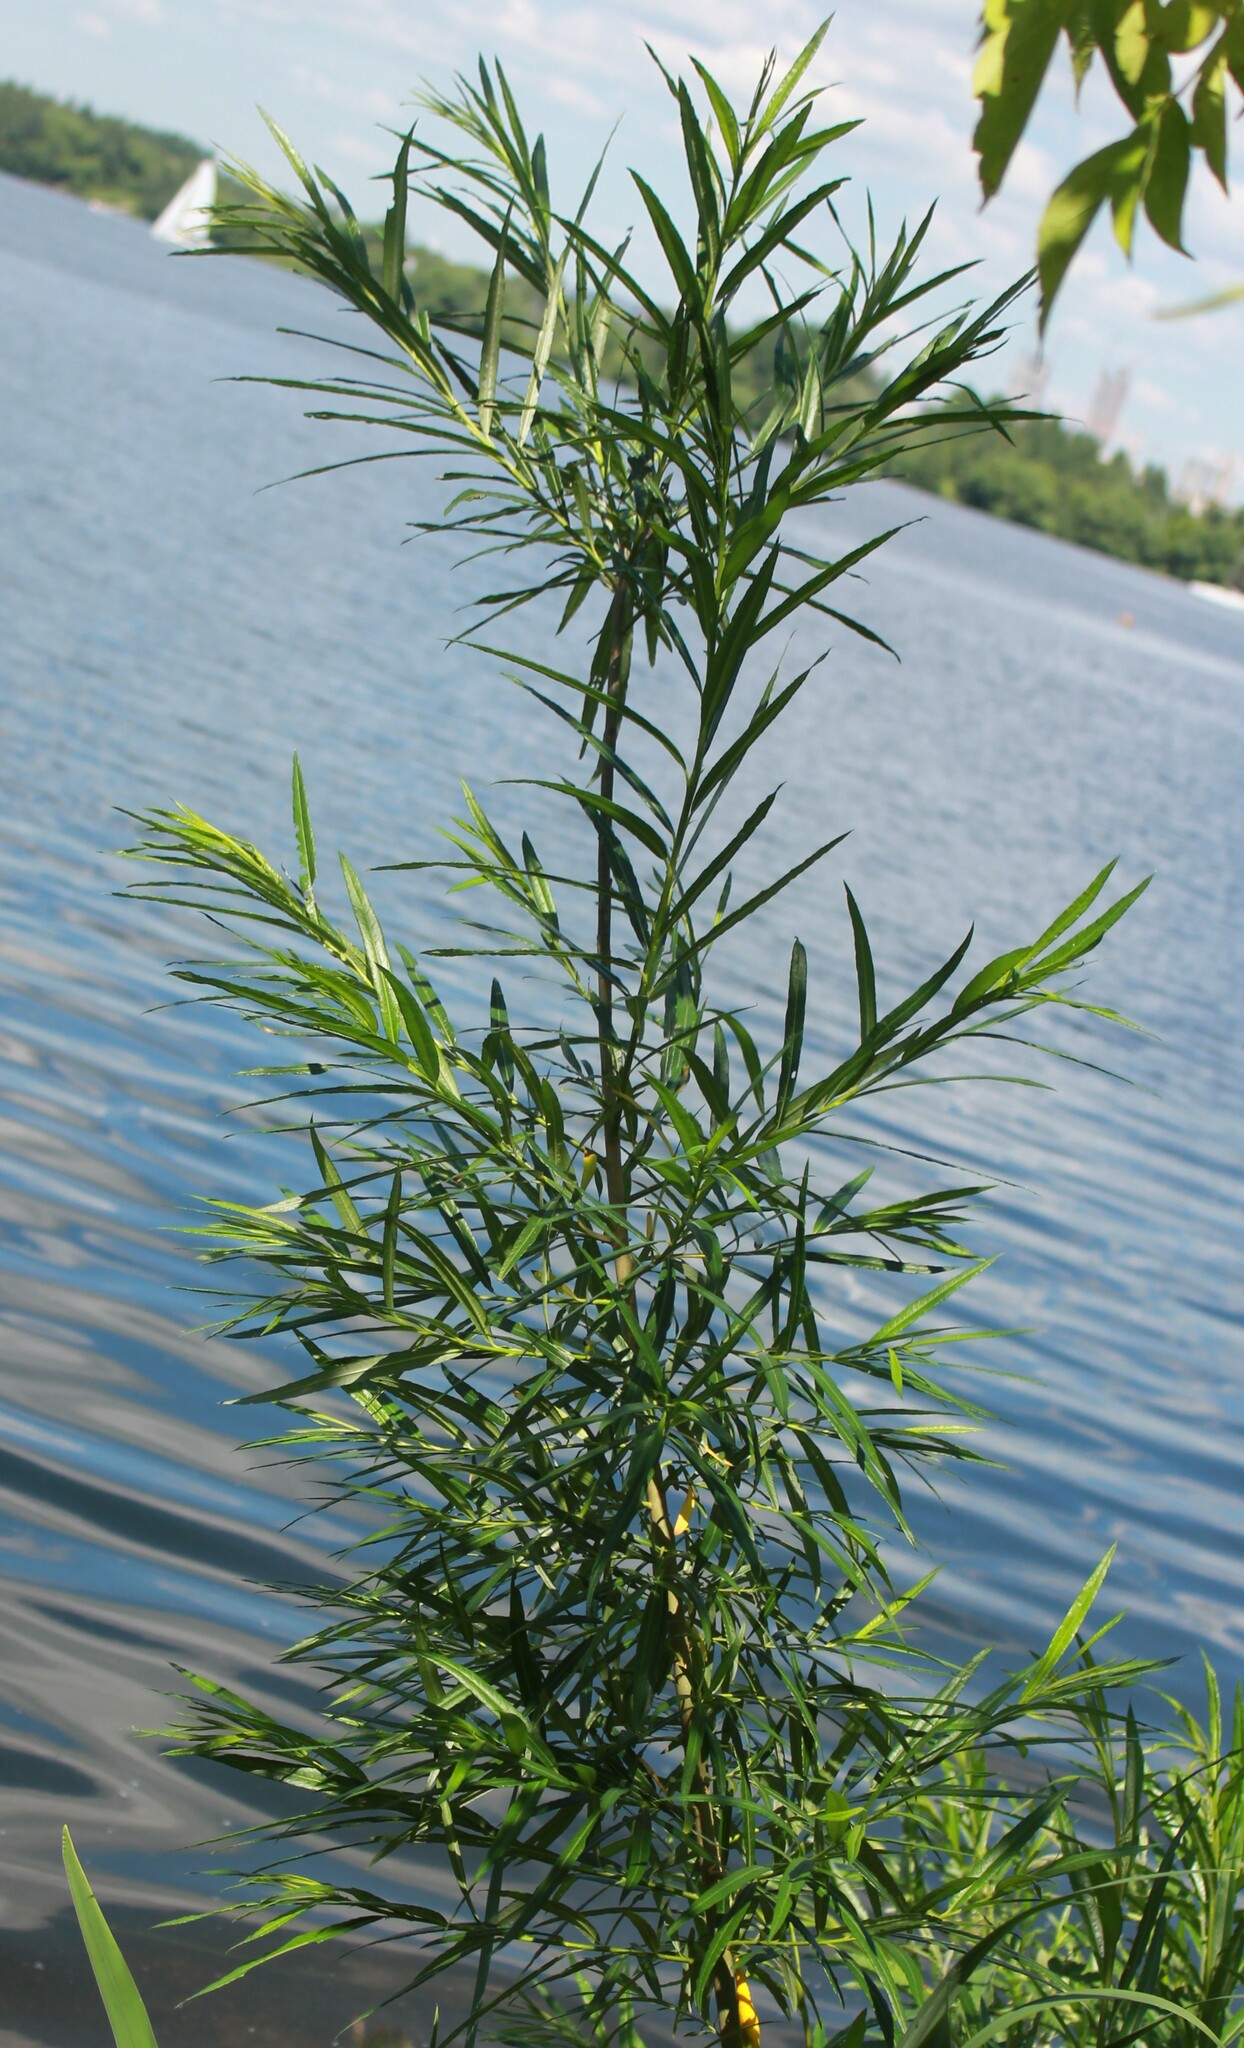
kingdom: Plantae
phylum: Tracheophyta
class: Magnoliopsida
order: Malpighiales
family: Salicaceae
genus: Salix
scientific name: Salix viminalis
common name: Osier
